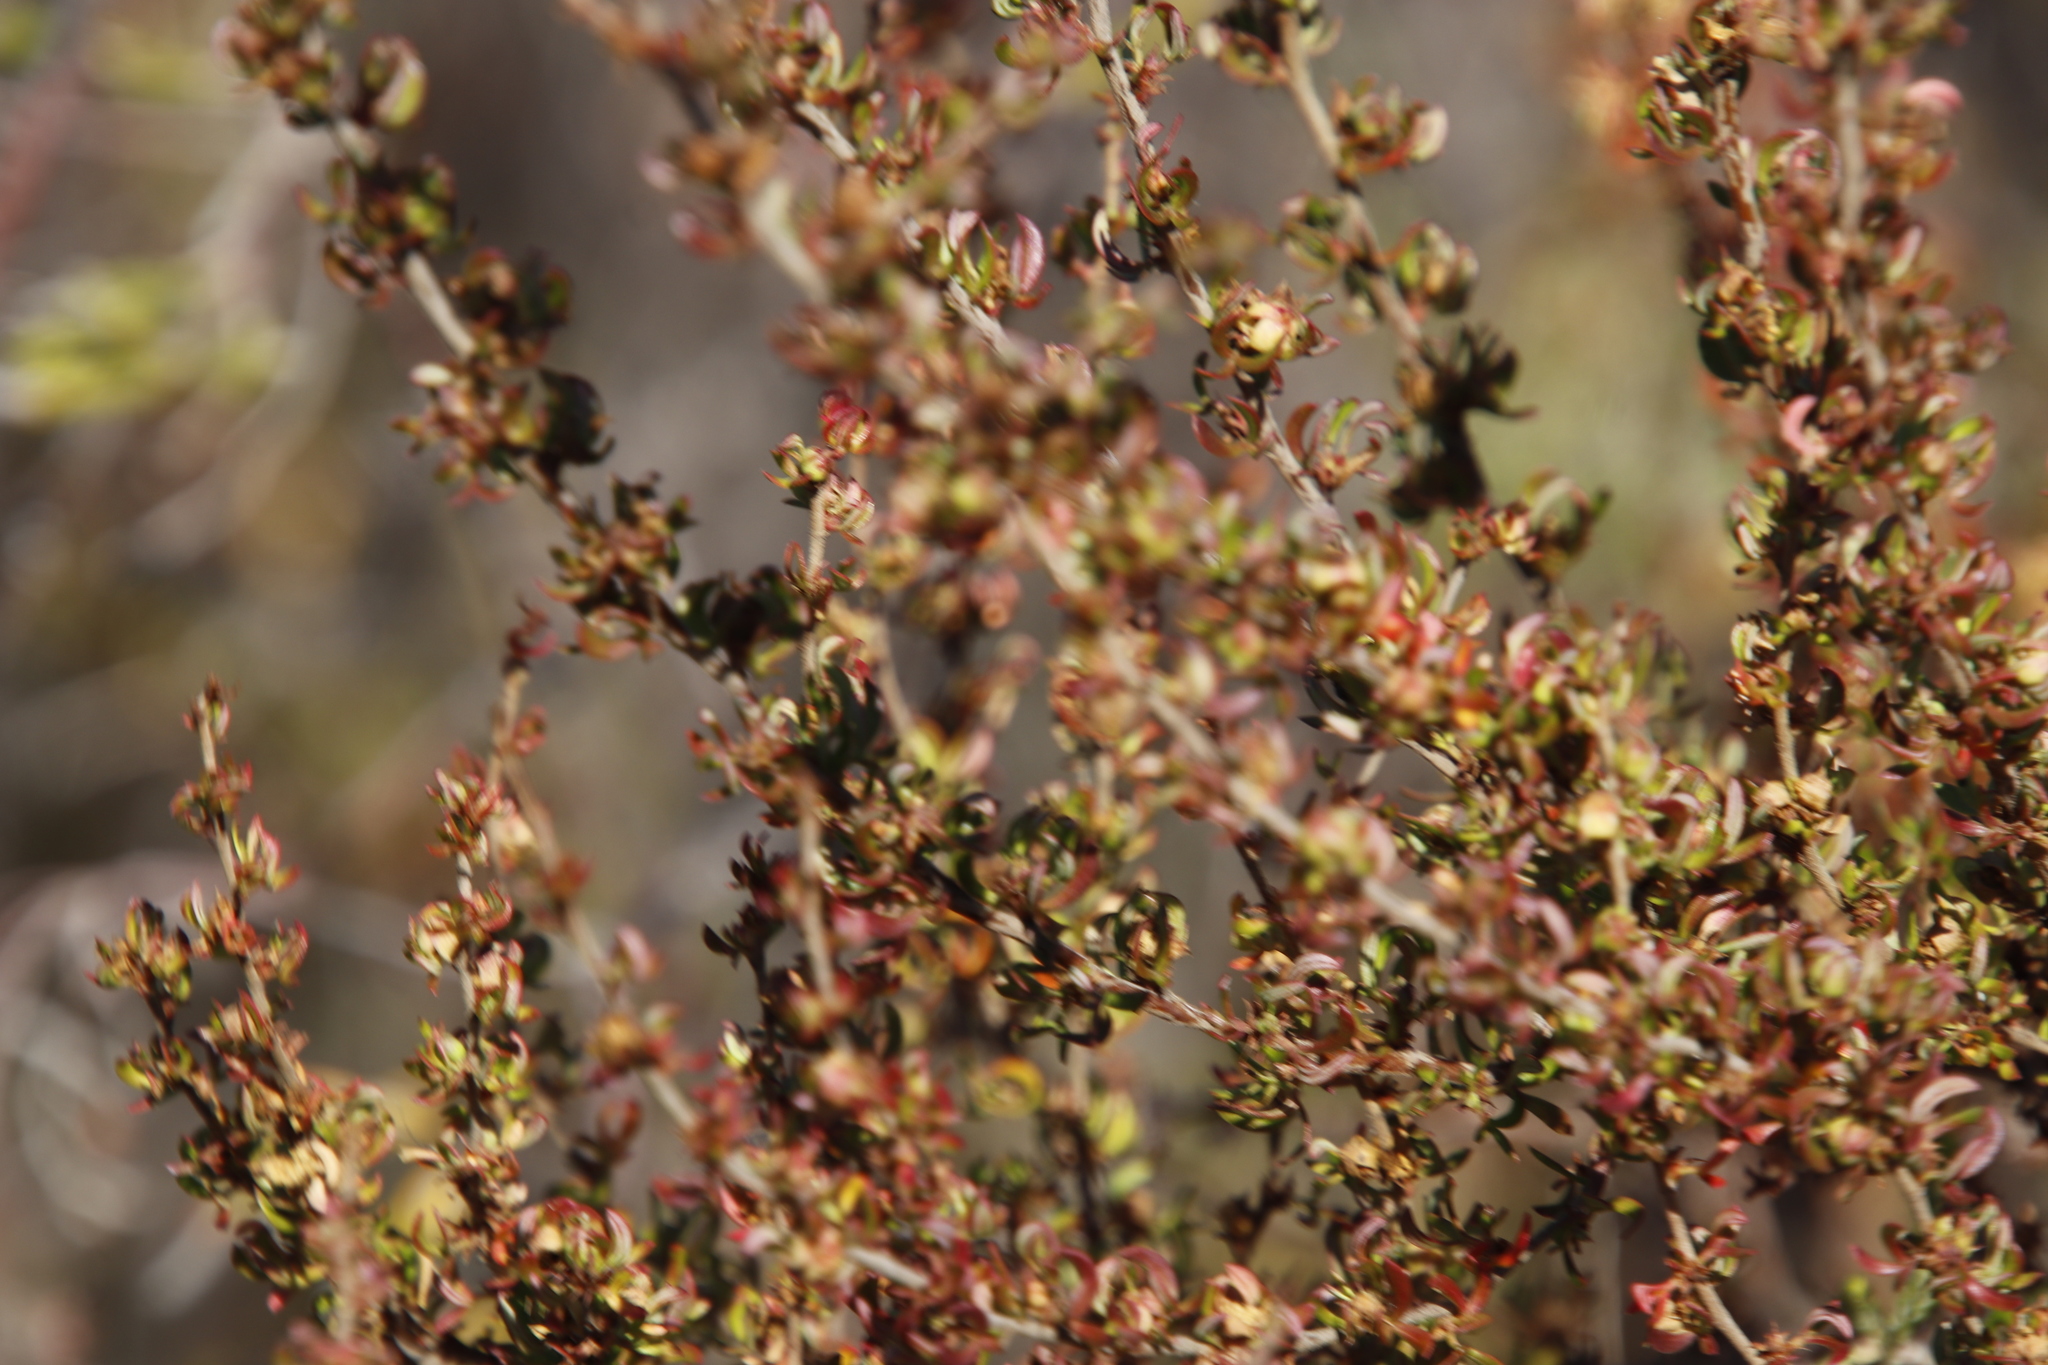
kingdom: Plantae
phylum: Tracheophyta
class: Magnoliopsida
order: Rosales
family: Rosaceae
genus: Cliffortia
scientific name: Cliffortia falcata
